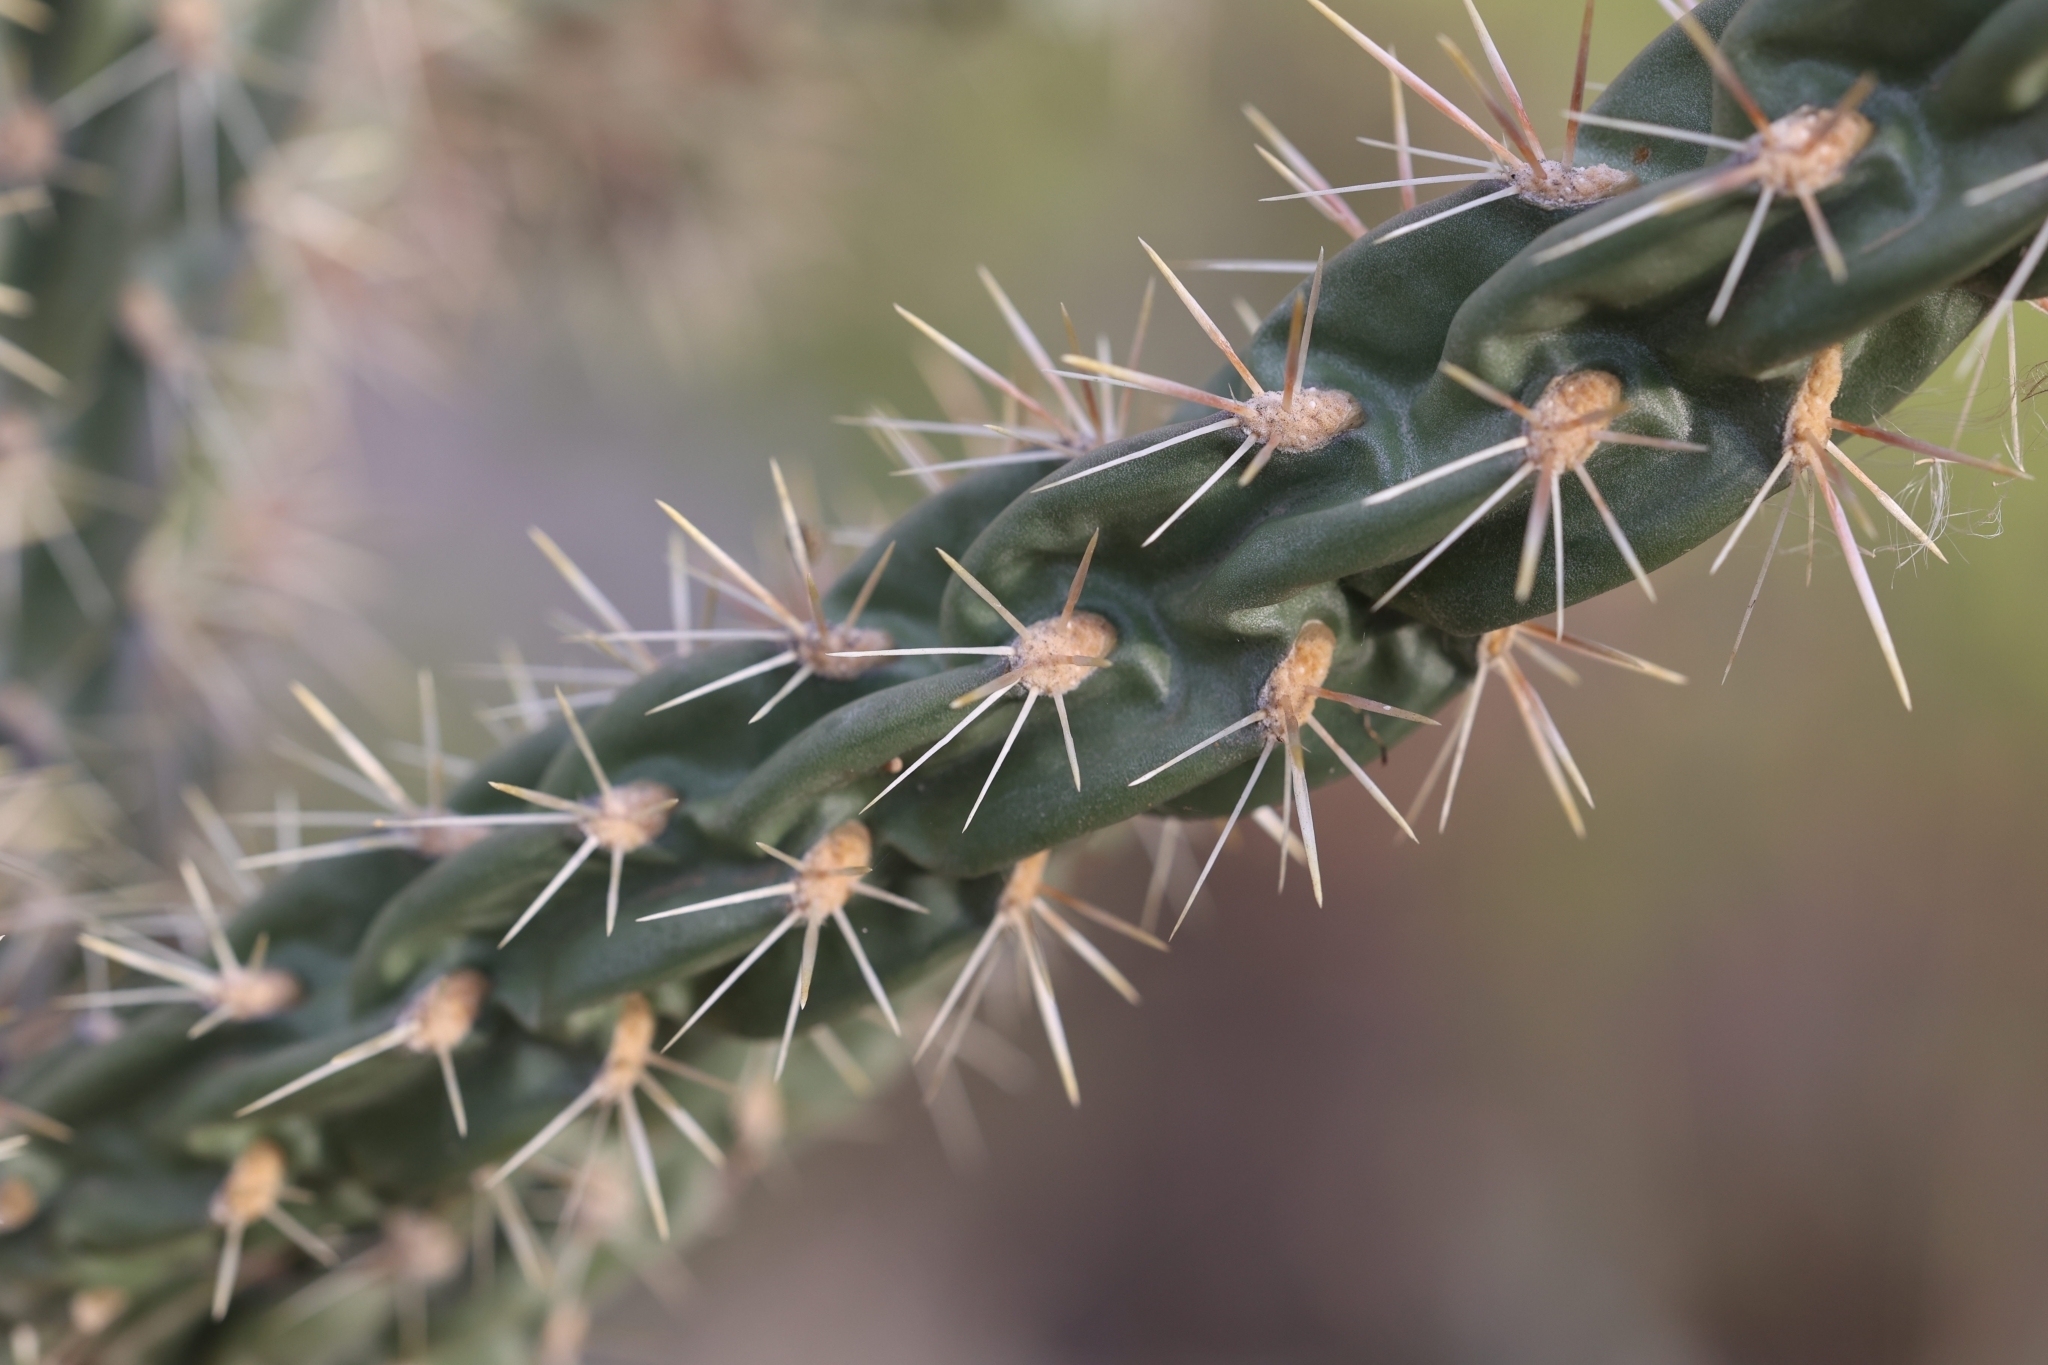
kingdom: Plantae
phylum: Tracheophyta
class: Magnoliopsida
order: Caryophyllales
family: Cactaceae
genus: Cylindropuntia
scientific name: Cylindropuntia imbricata
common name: Candelabrum cactus
